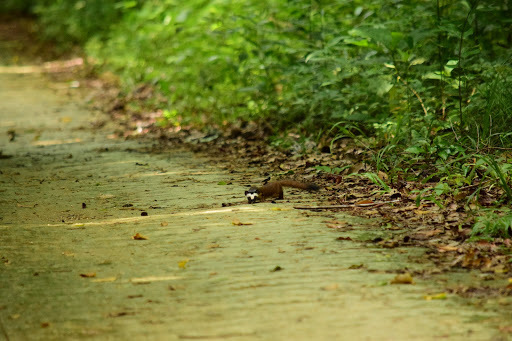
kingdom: Animalia
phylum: Chordata
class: Mammalia
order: Carnivora
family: Mustelidae
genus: Mustela
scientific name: Mustela
